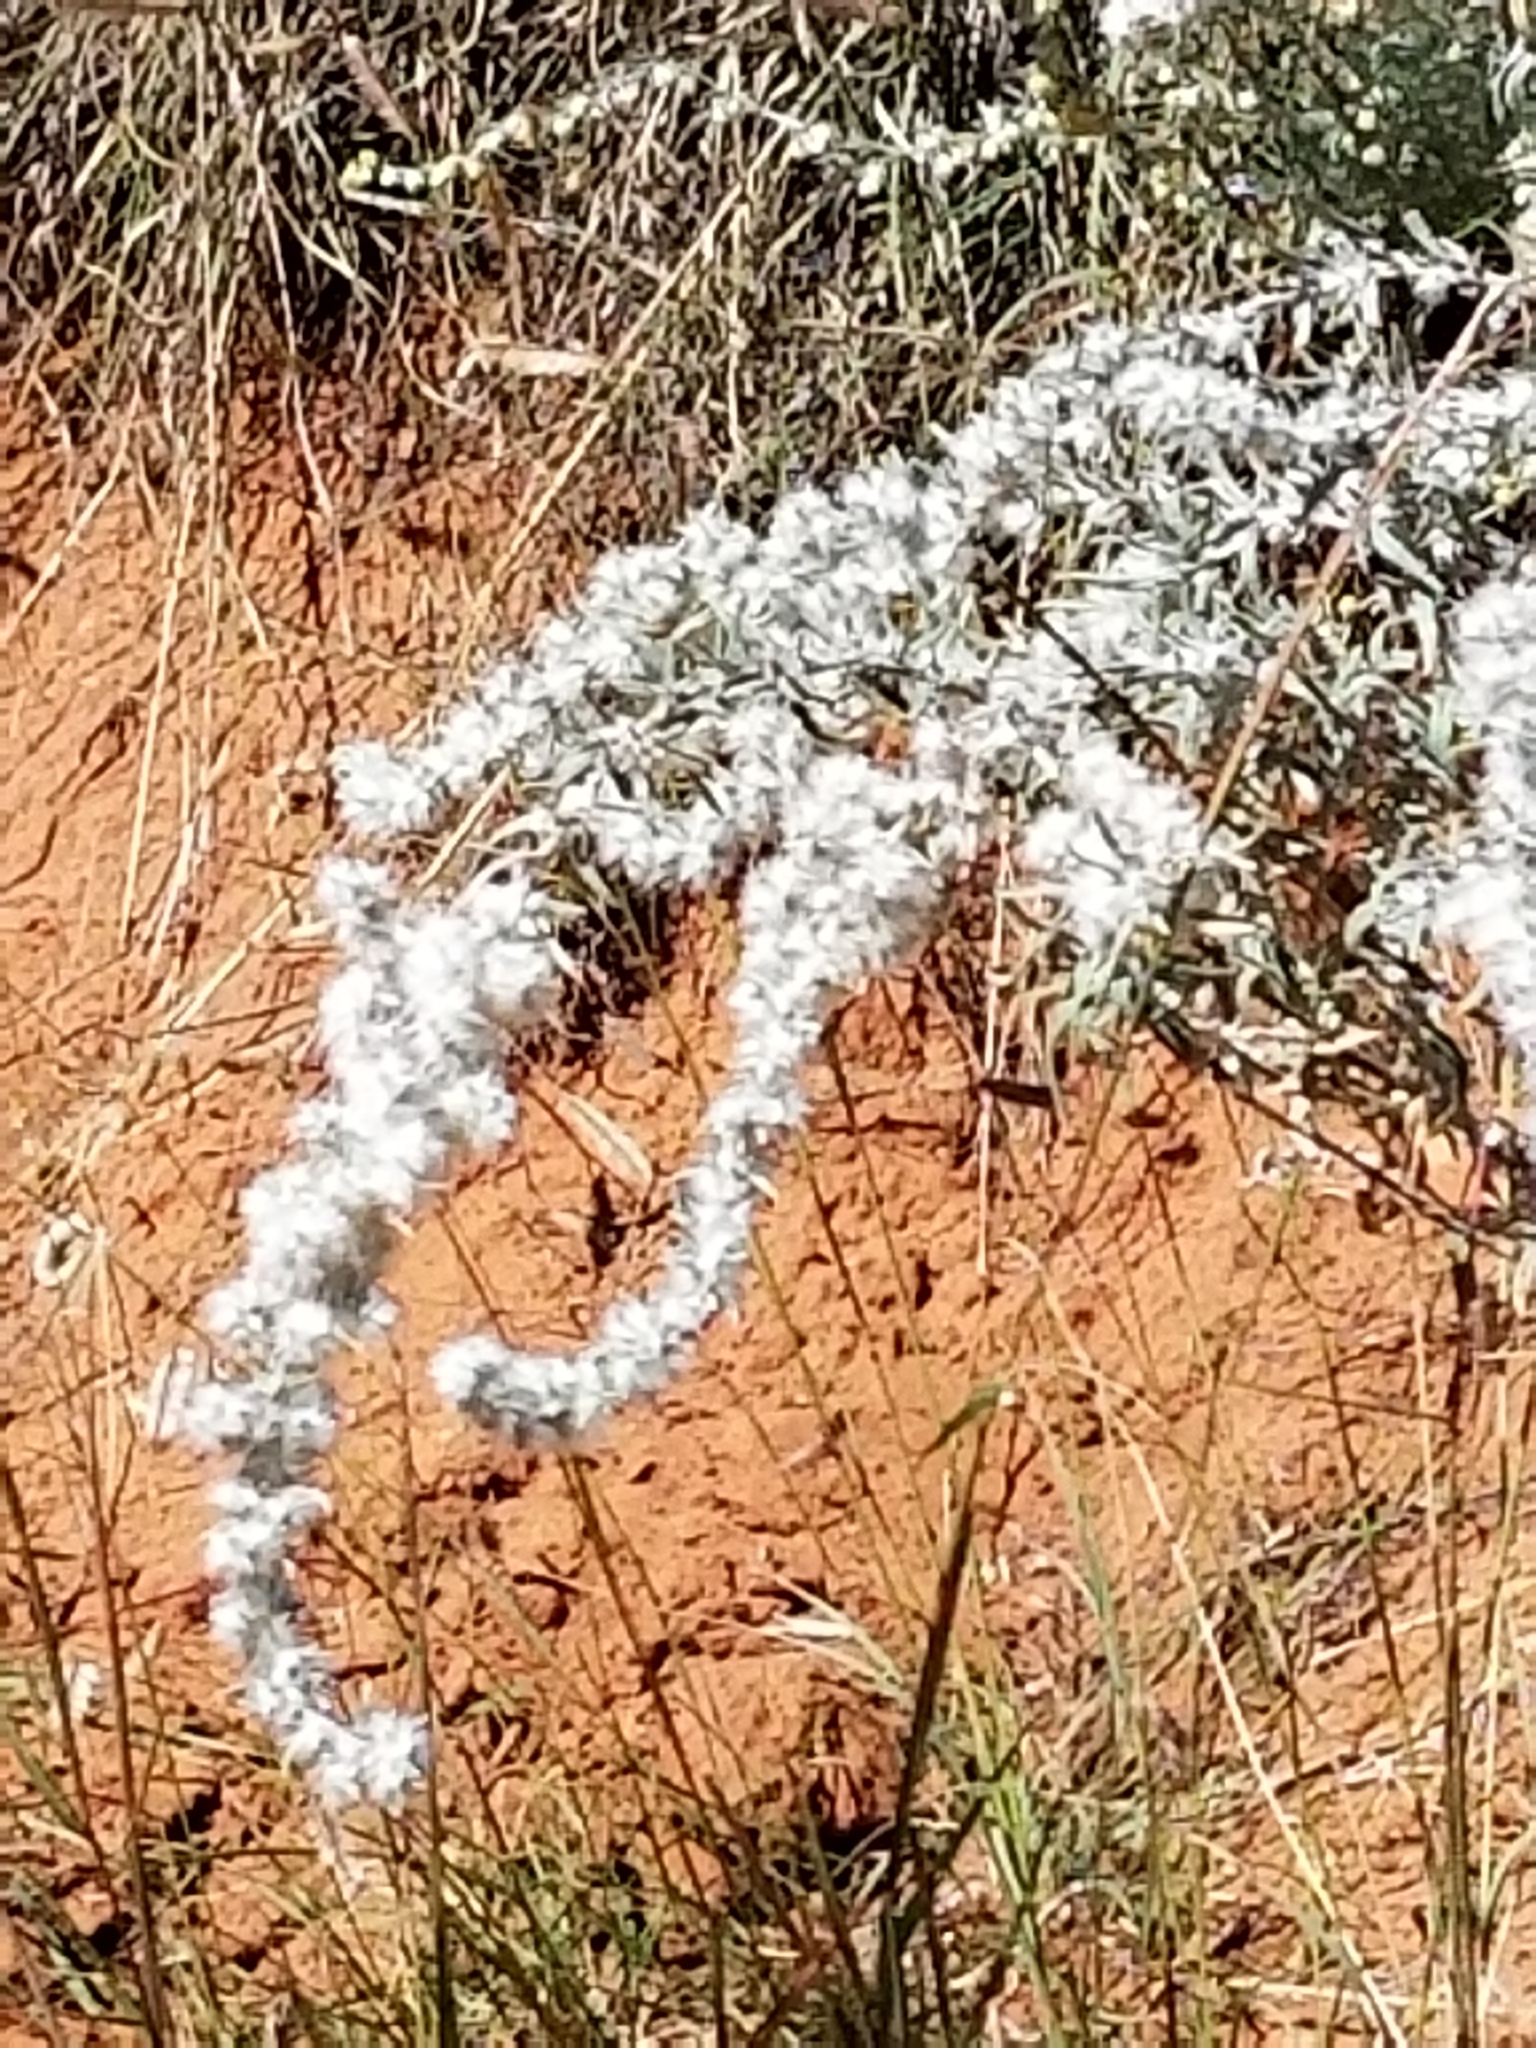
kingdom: Plantae
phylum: Tracheophyta
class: Magnoliopsida
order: Caryophyllales
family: Amaranthaceae
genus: Krascheninnikovia
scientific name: Krascheninnikovia lanata
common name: Winterfat
